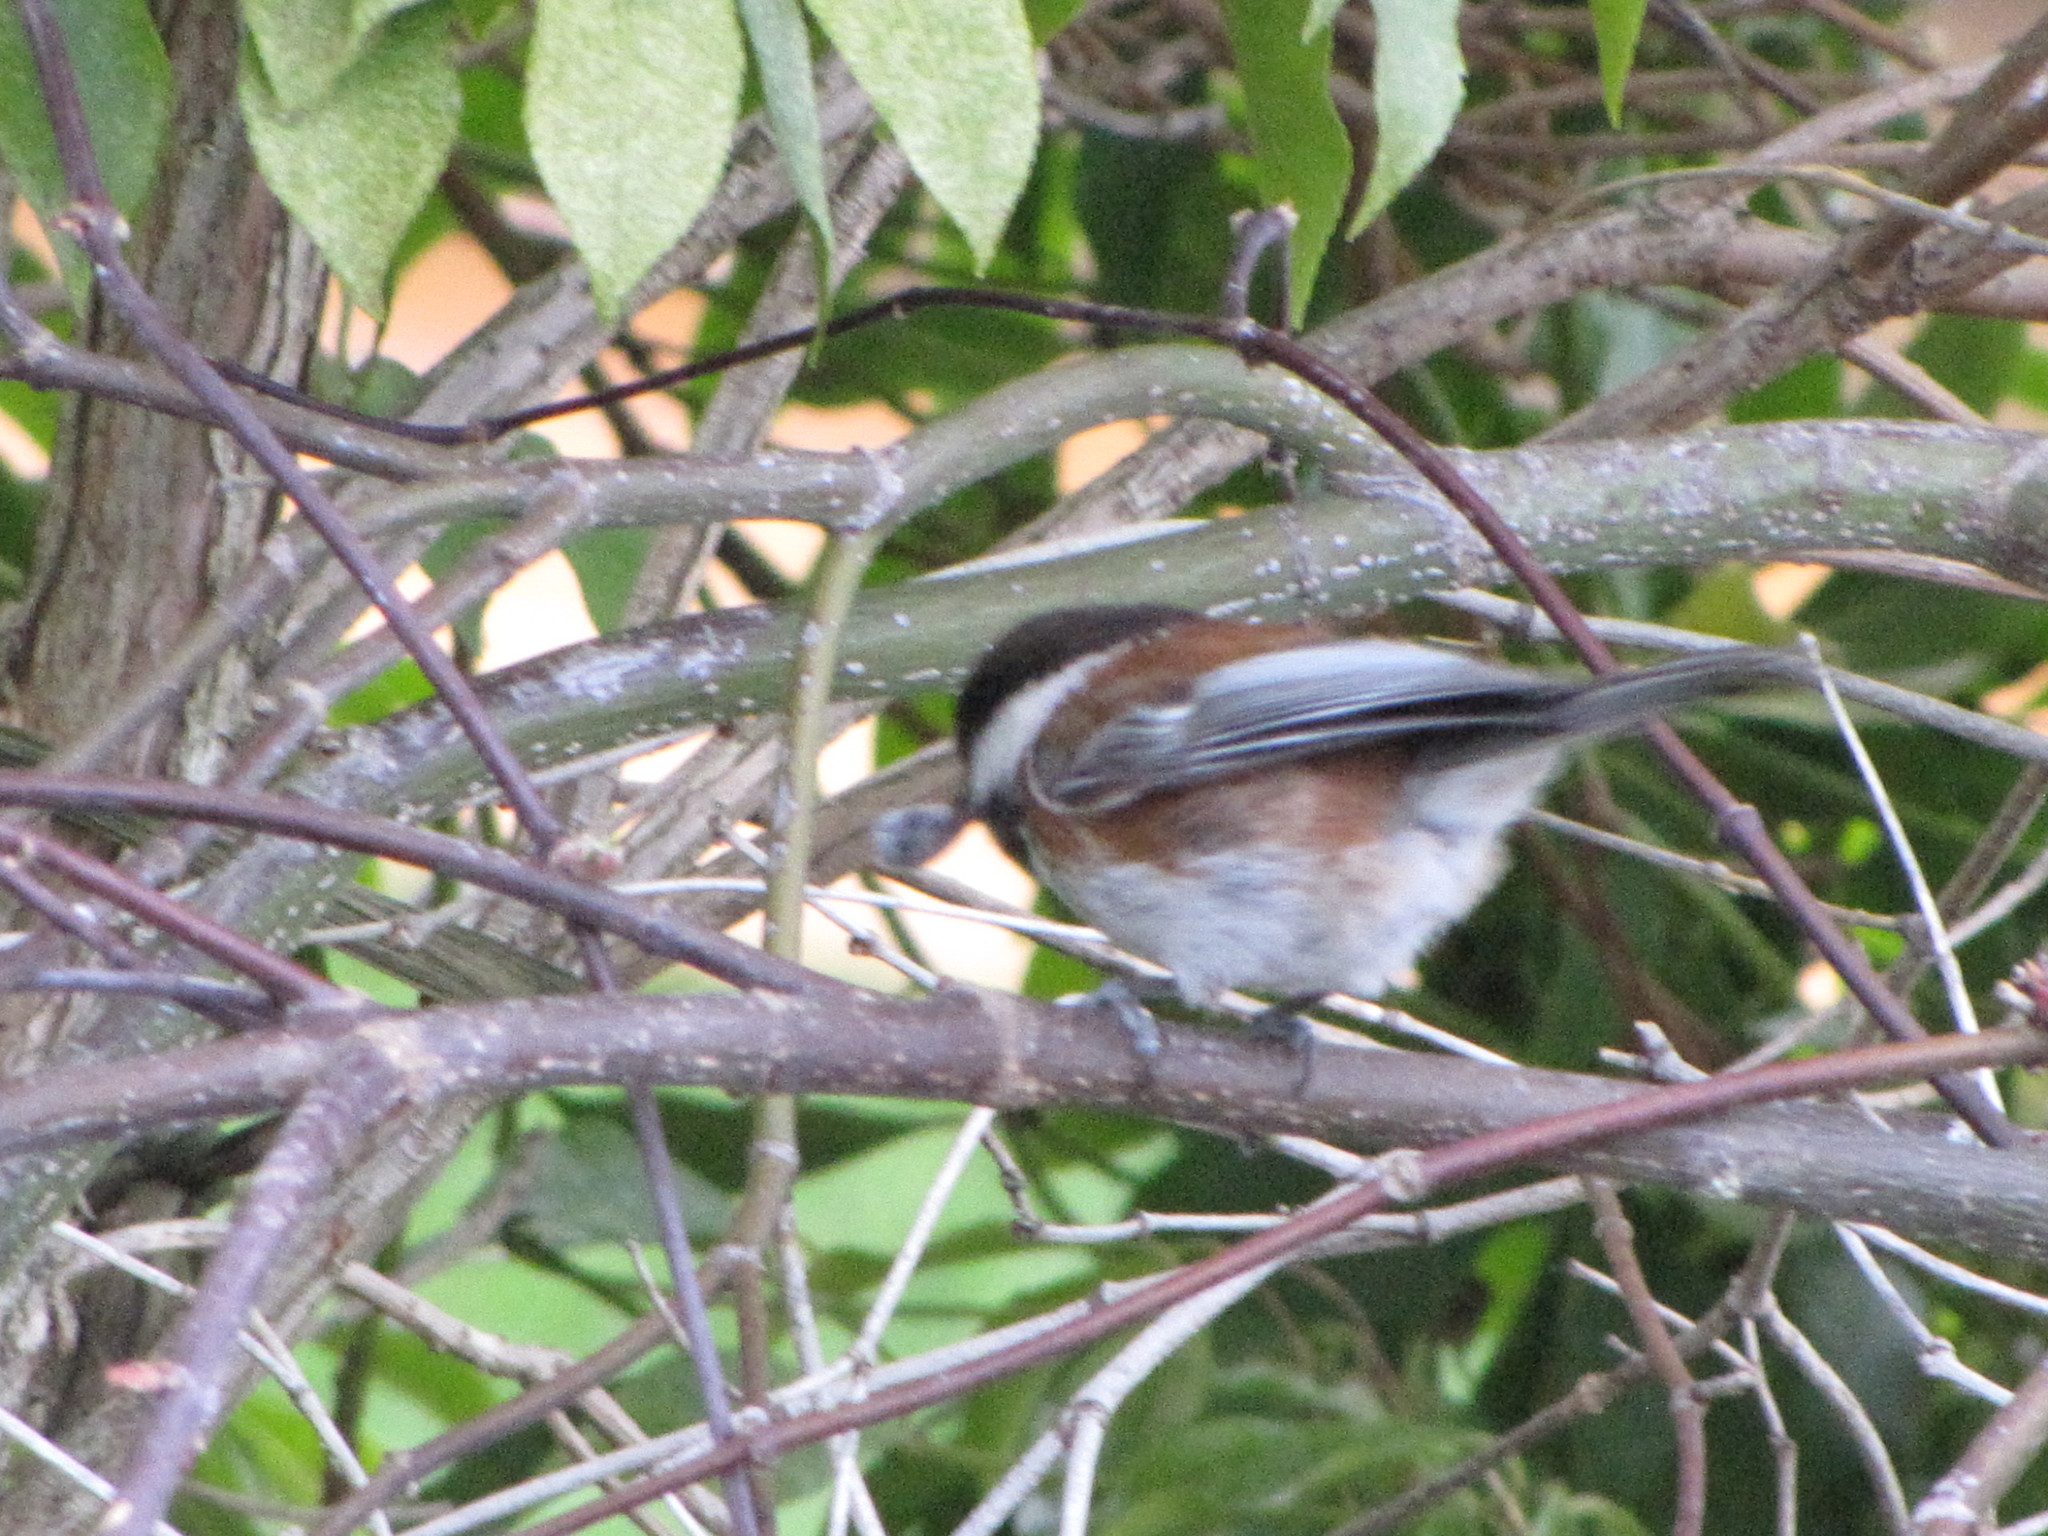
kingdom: Animalia
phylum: Chordata
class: Aves
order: Passeriformes
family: Paridae
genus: Poecile
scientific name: Poecile rufescens
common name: Chestnut-backed chickadee
